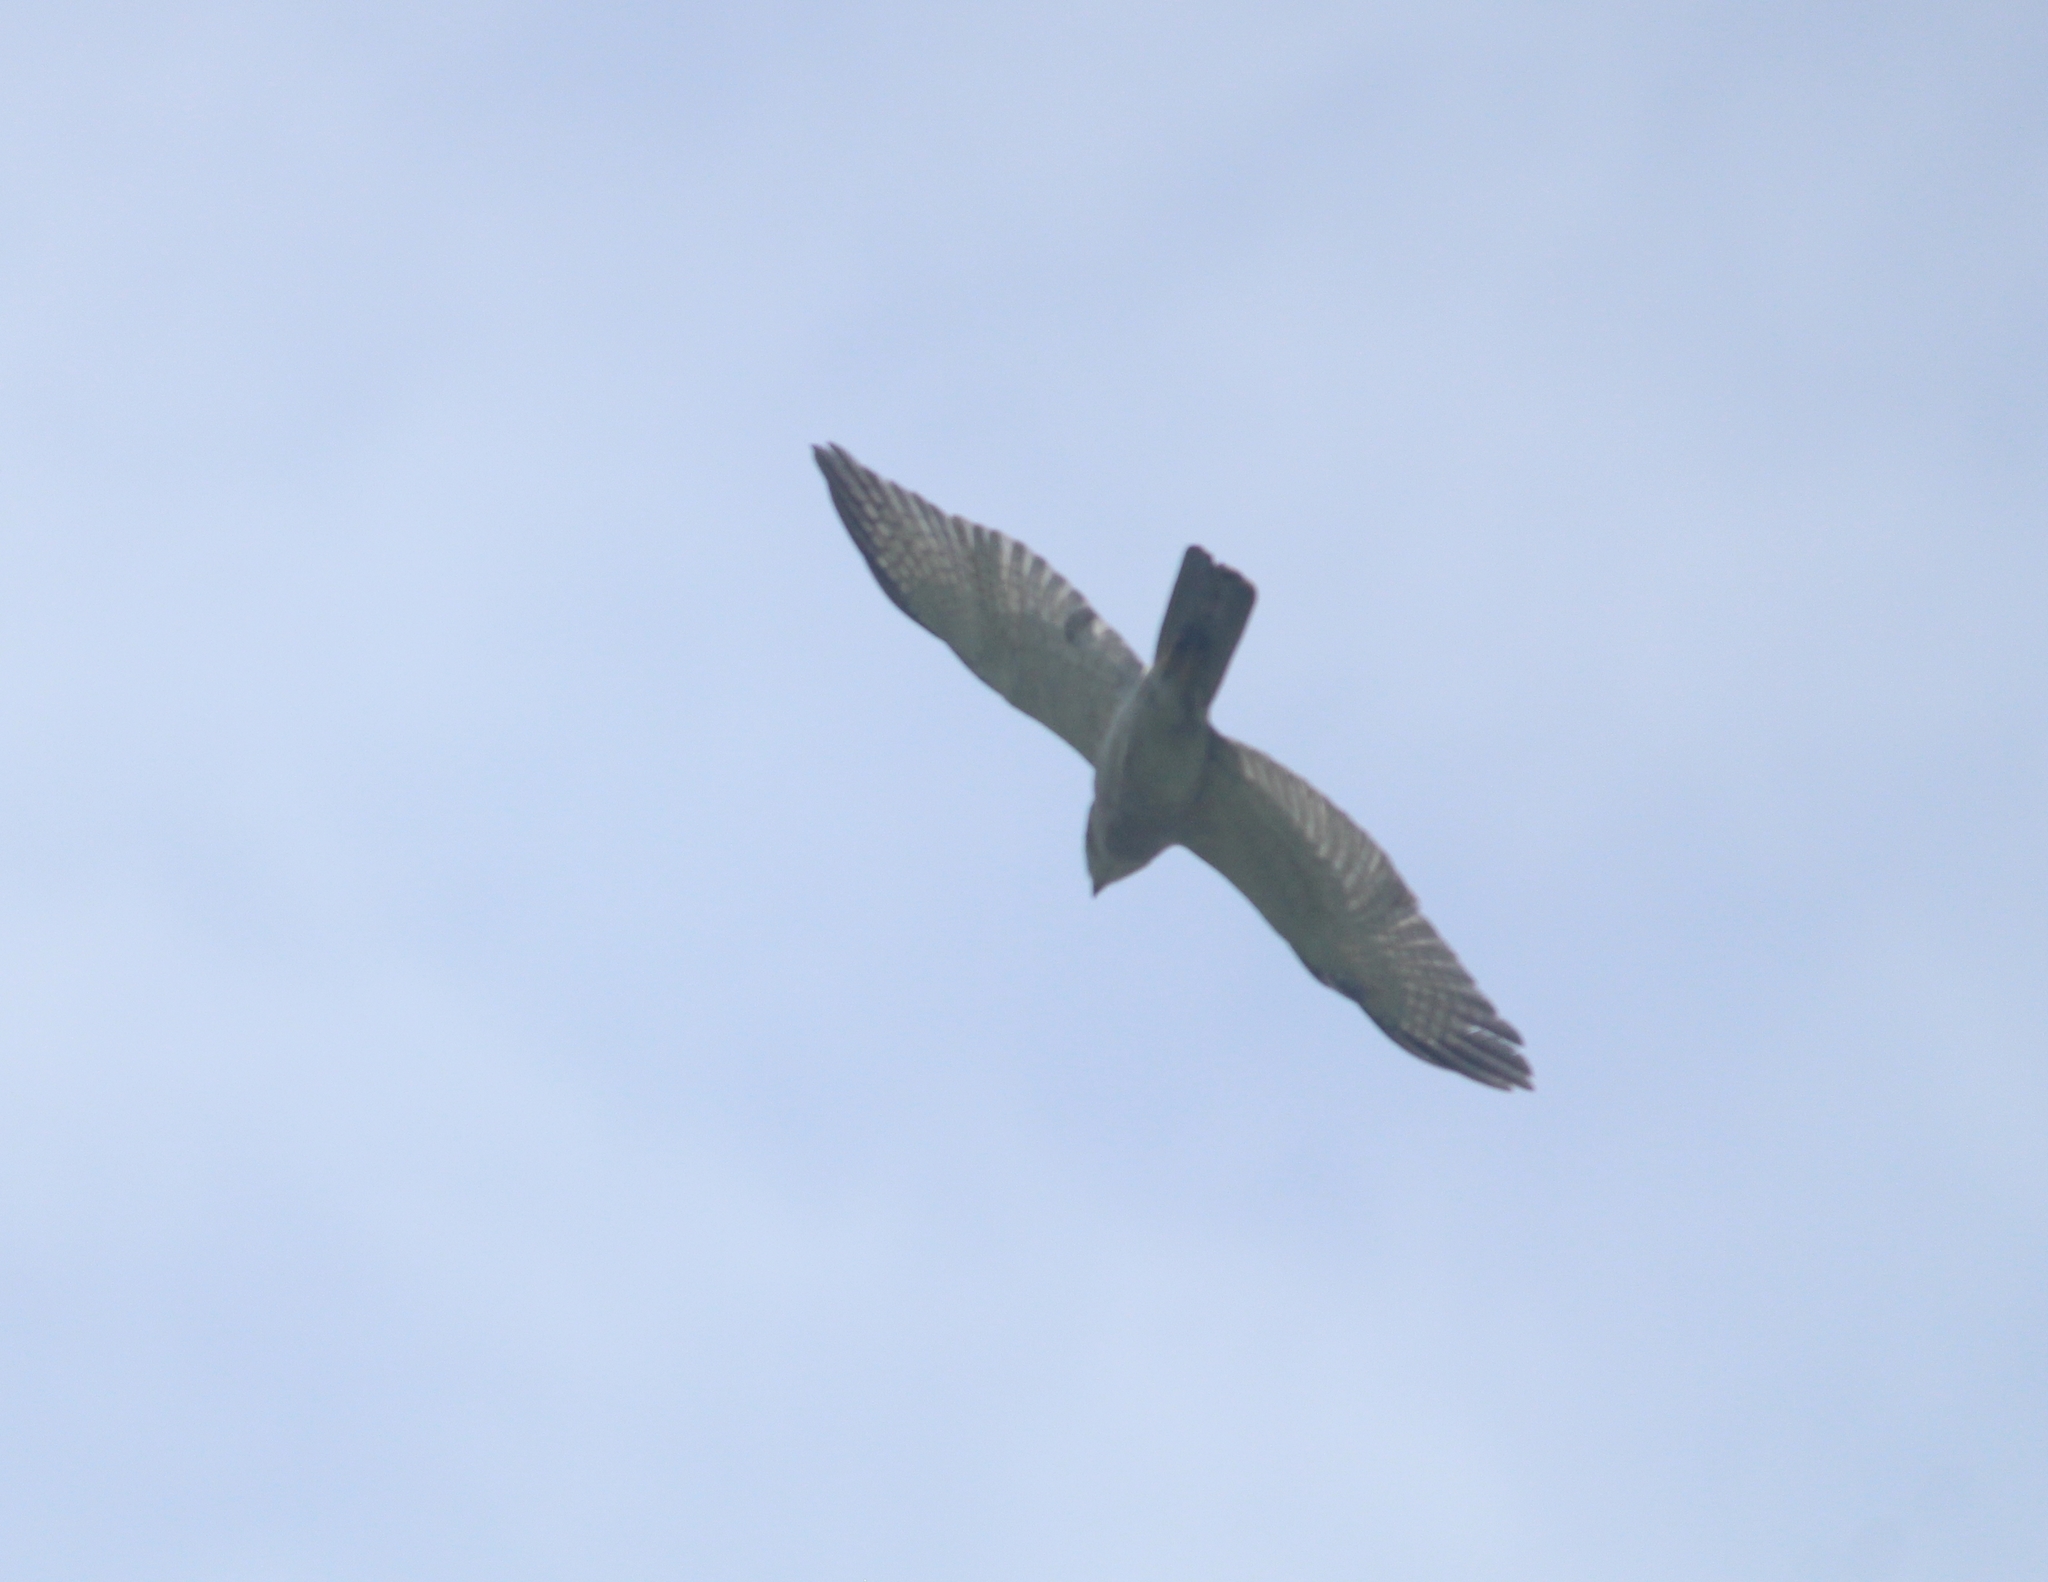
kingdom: Animalia
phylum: Chordata
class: Aves
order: Accipitriformes
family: Accipitridae
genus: Accipiter
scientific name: Accipiter badius
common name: Shikra
